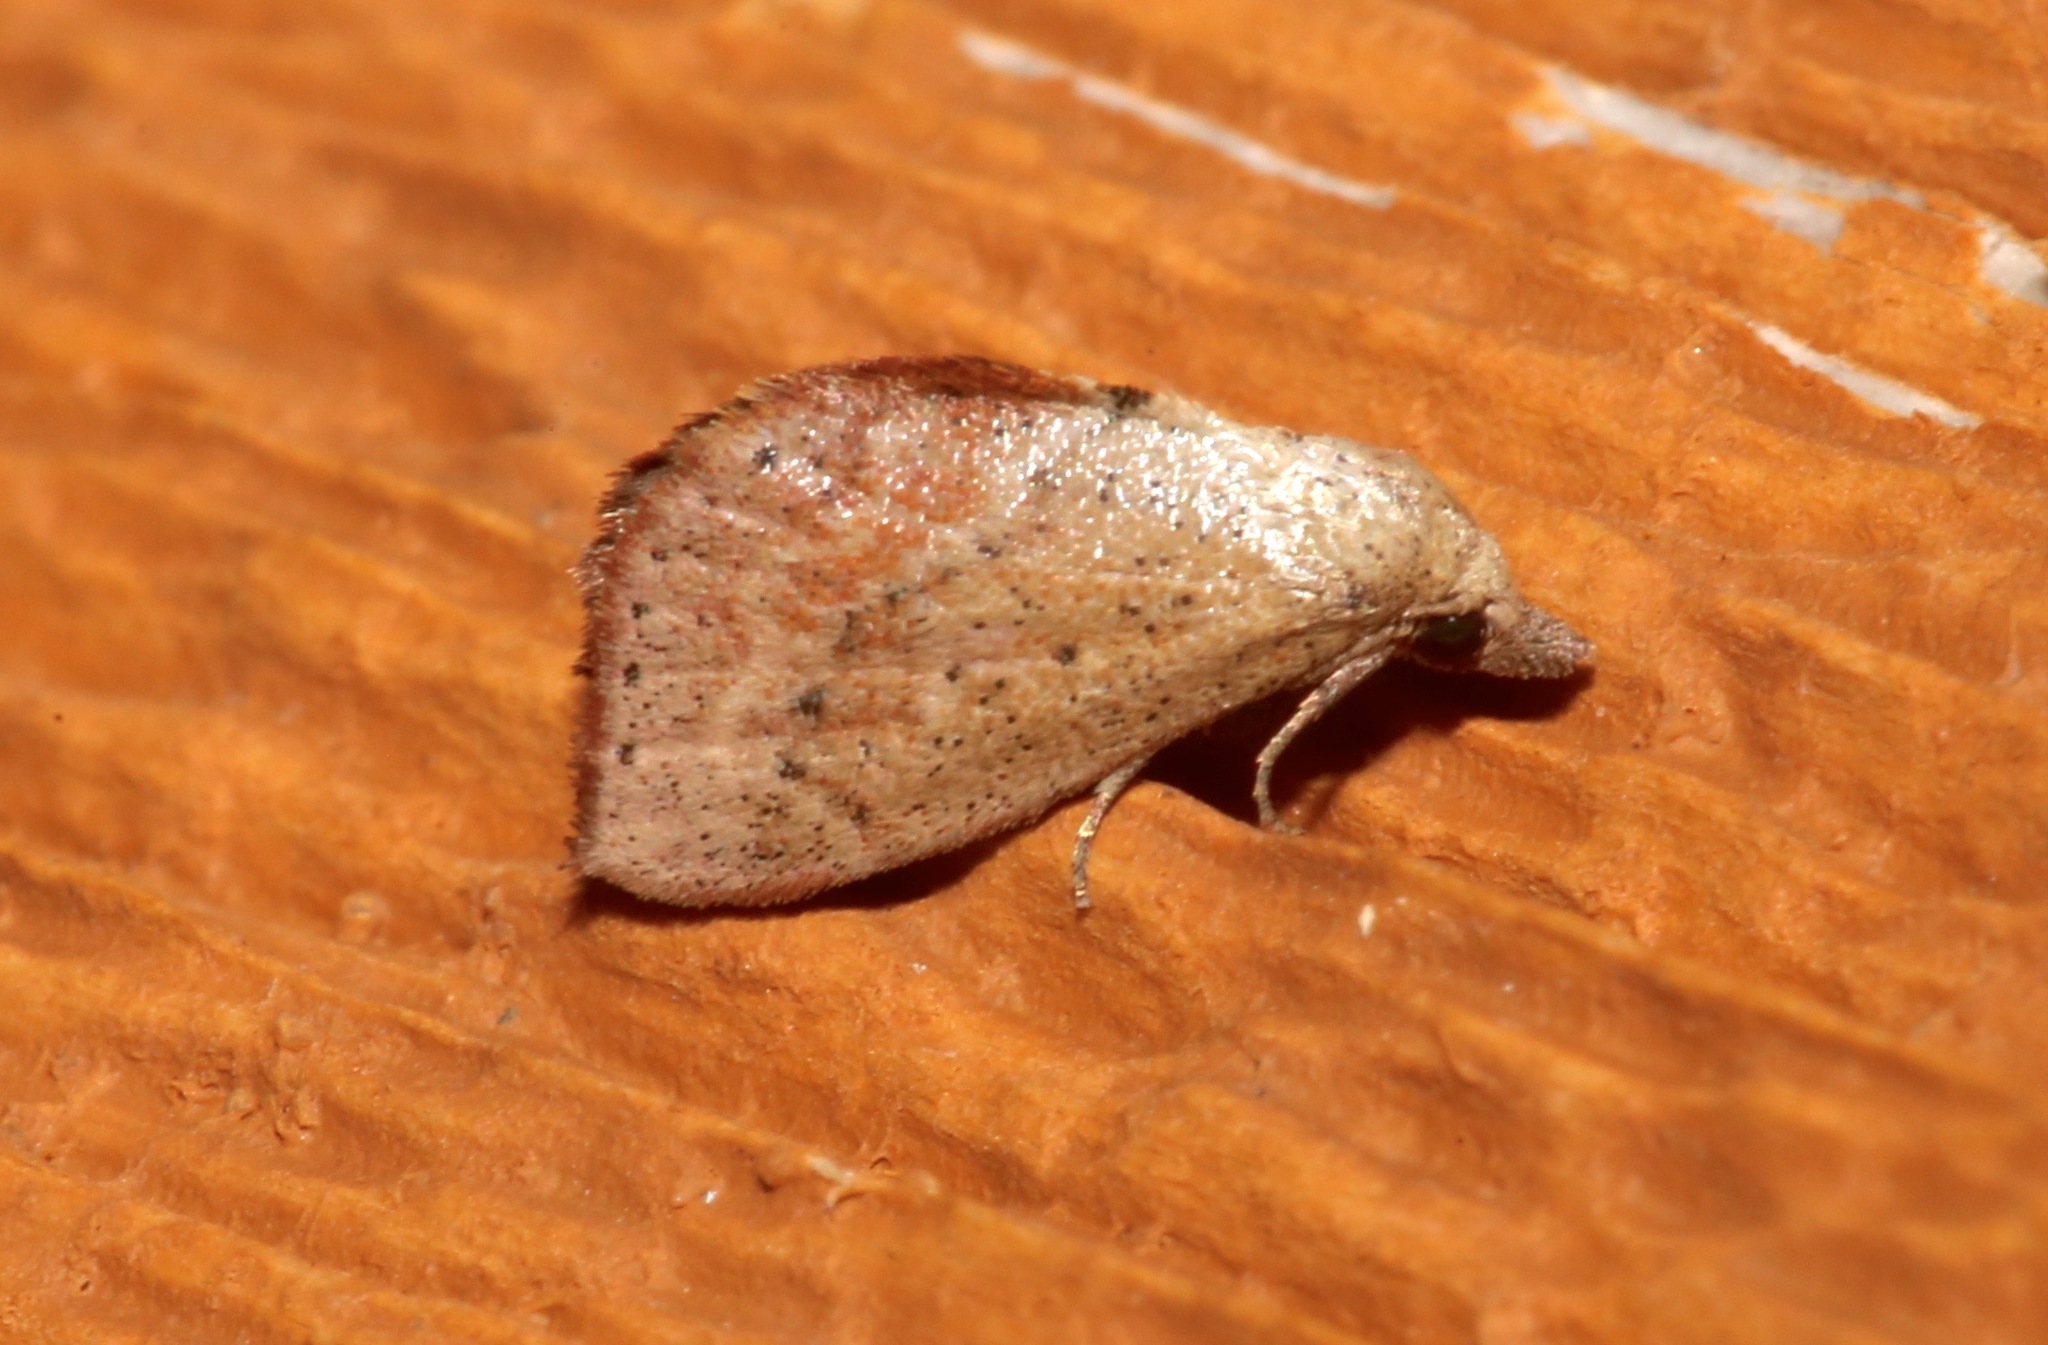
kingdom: Animalia
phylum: Arthropoda
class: Insecta
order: Lepidoptera
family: Noctuidae
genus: Proroblemma
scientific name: Proroblemma testa
